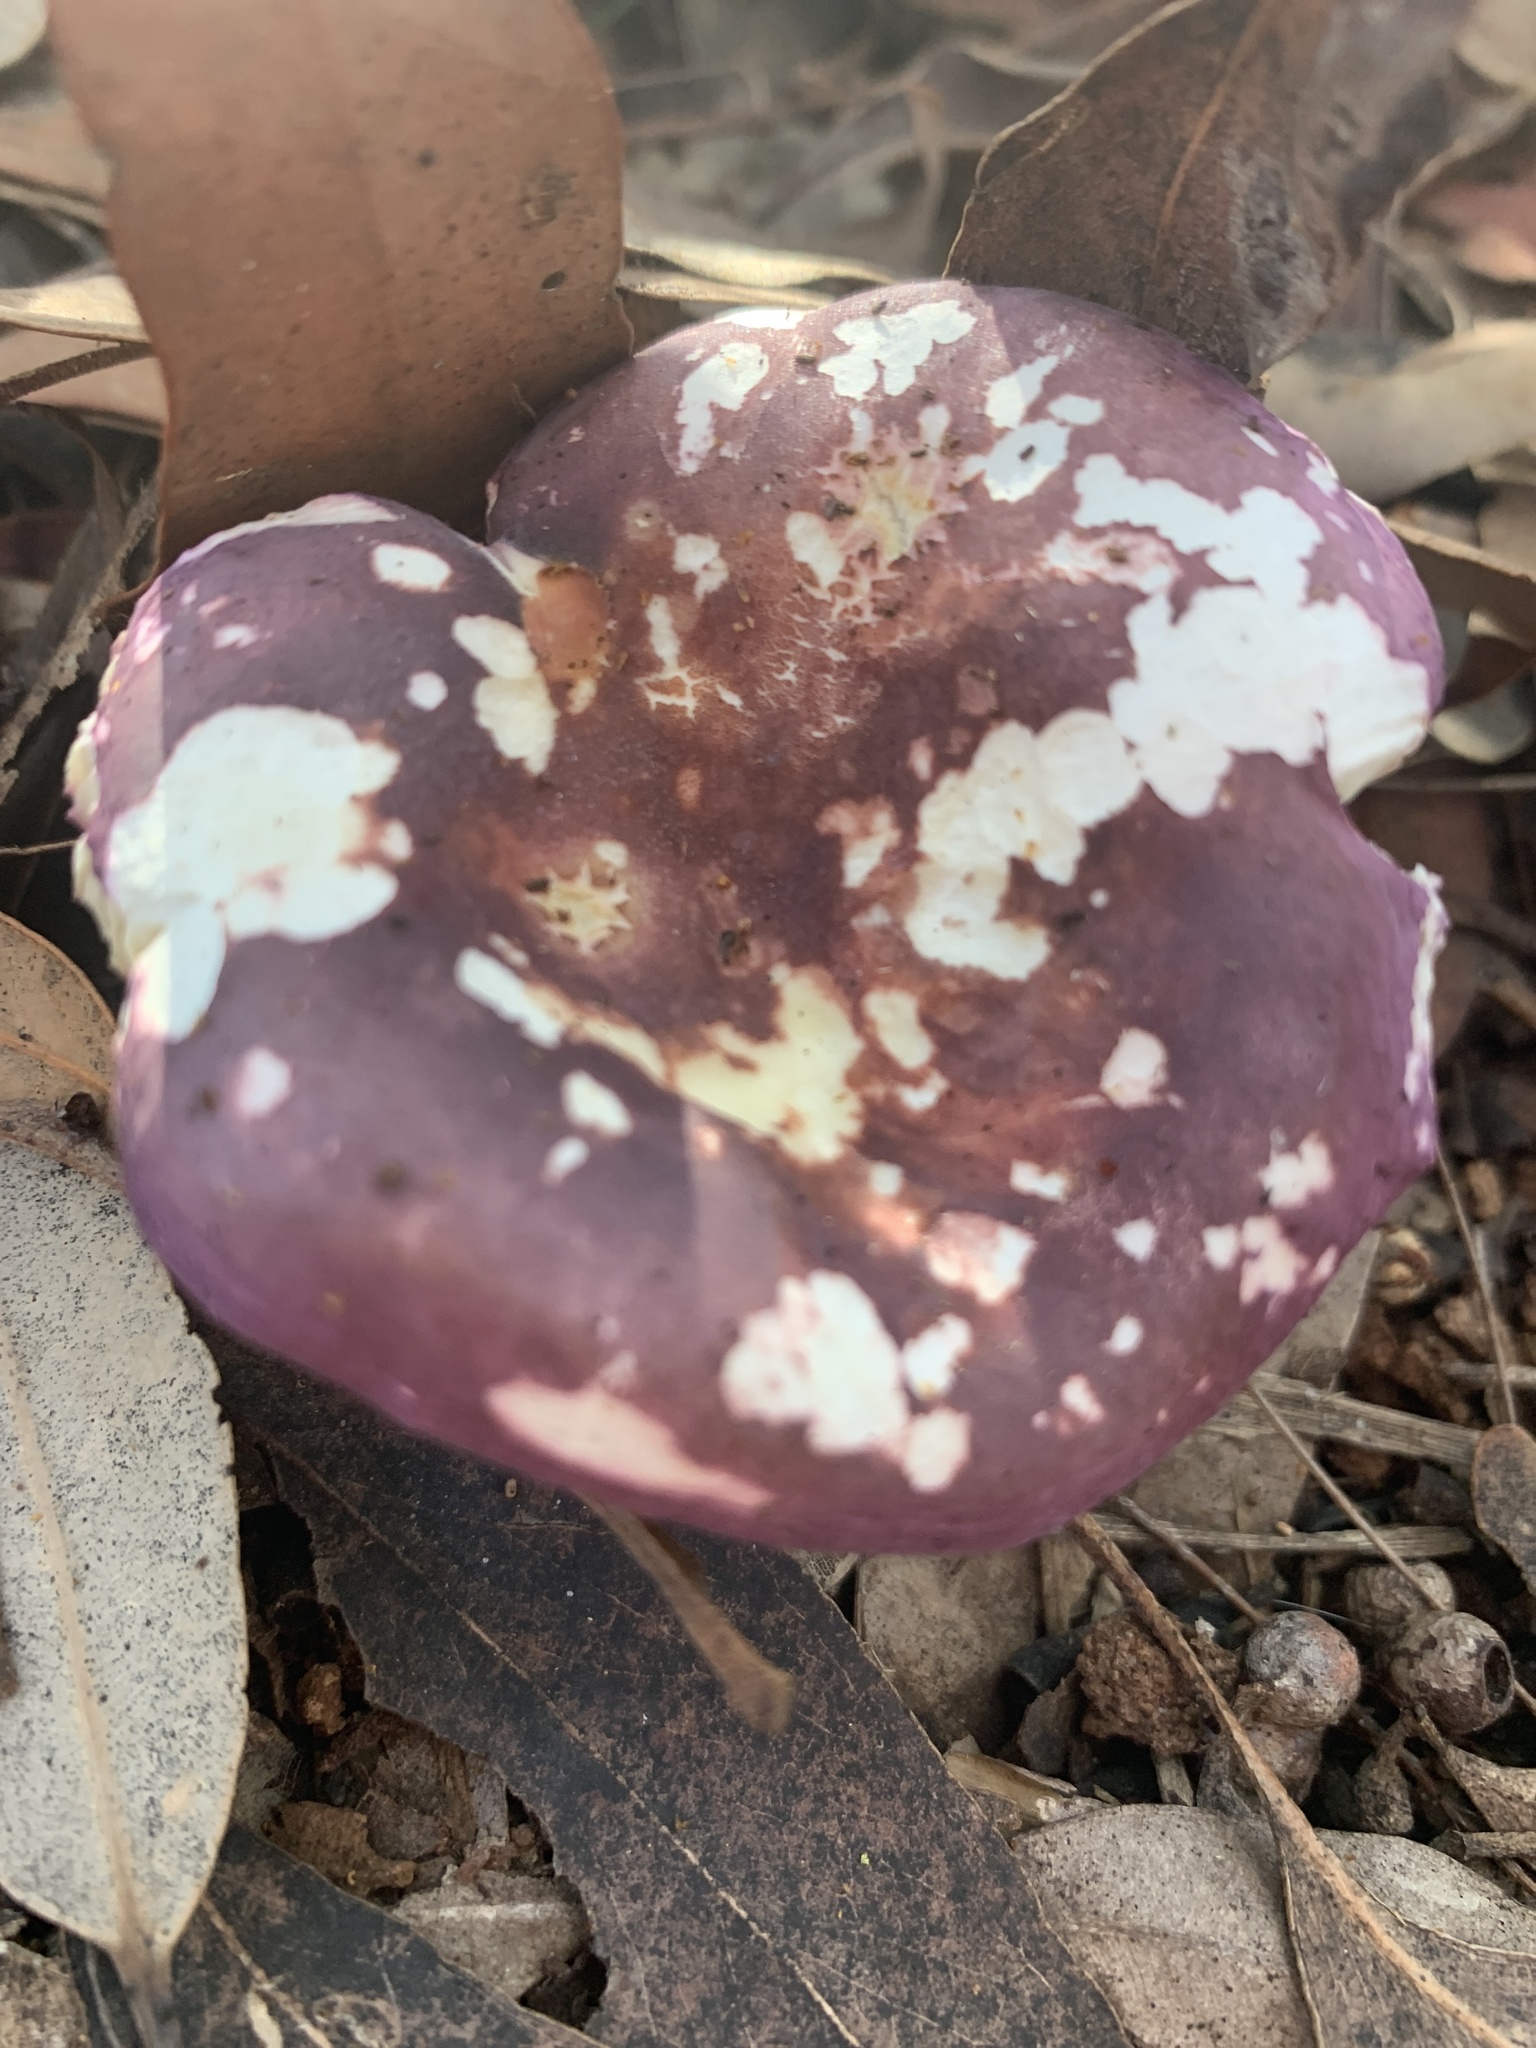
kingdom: Fungi
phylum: Basidiomycota
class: Agaricomycetes
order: Russulales
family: Russulaceae
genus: Russula
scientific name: Russula lenkunya
